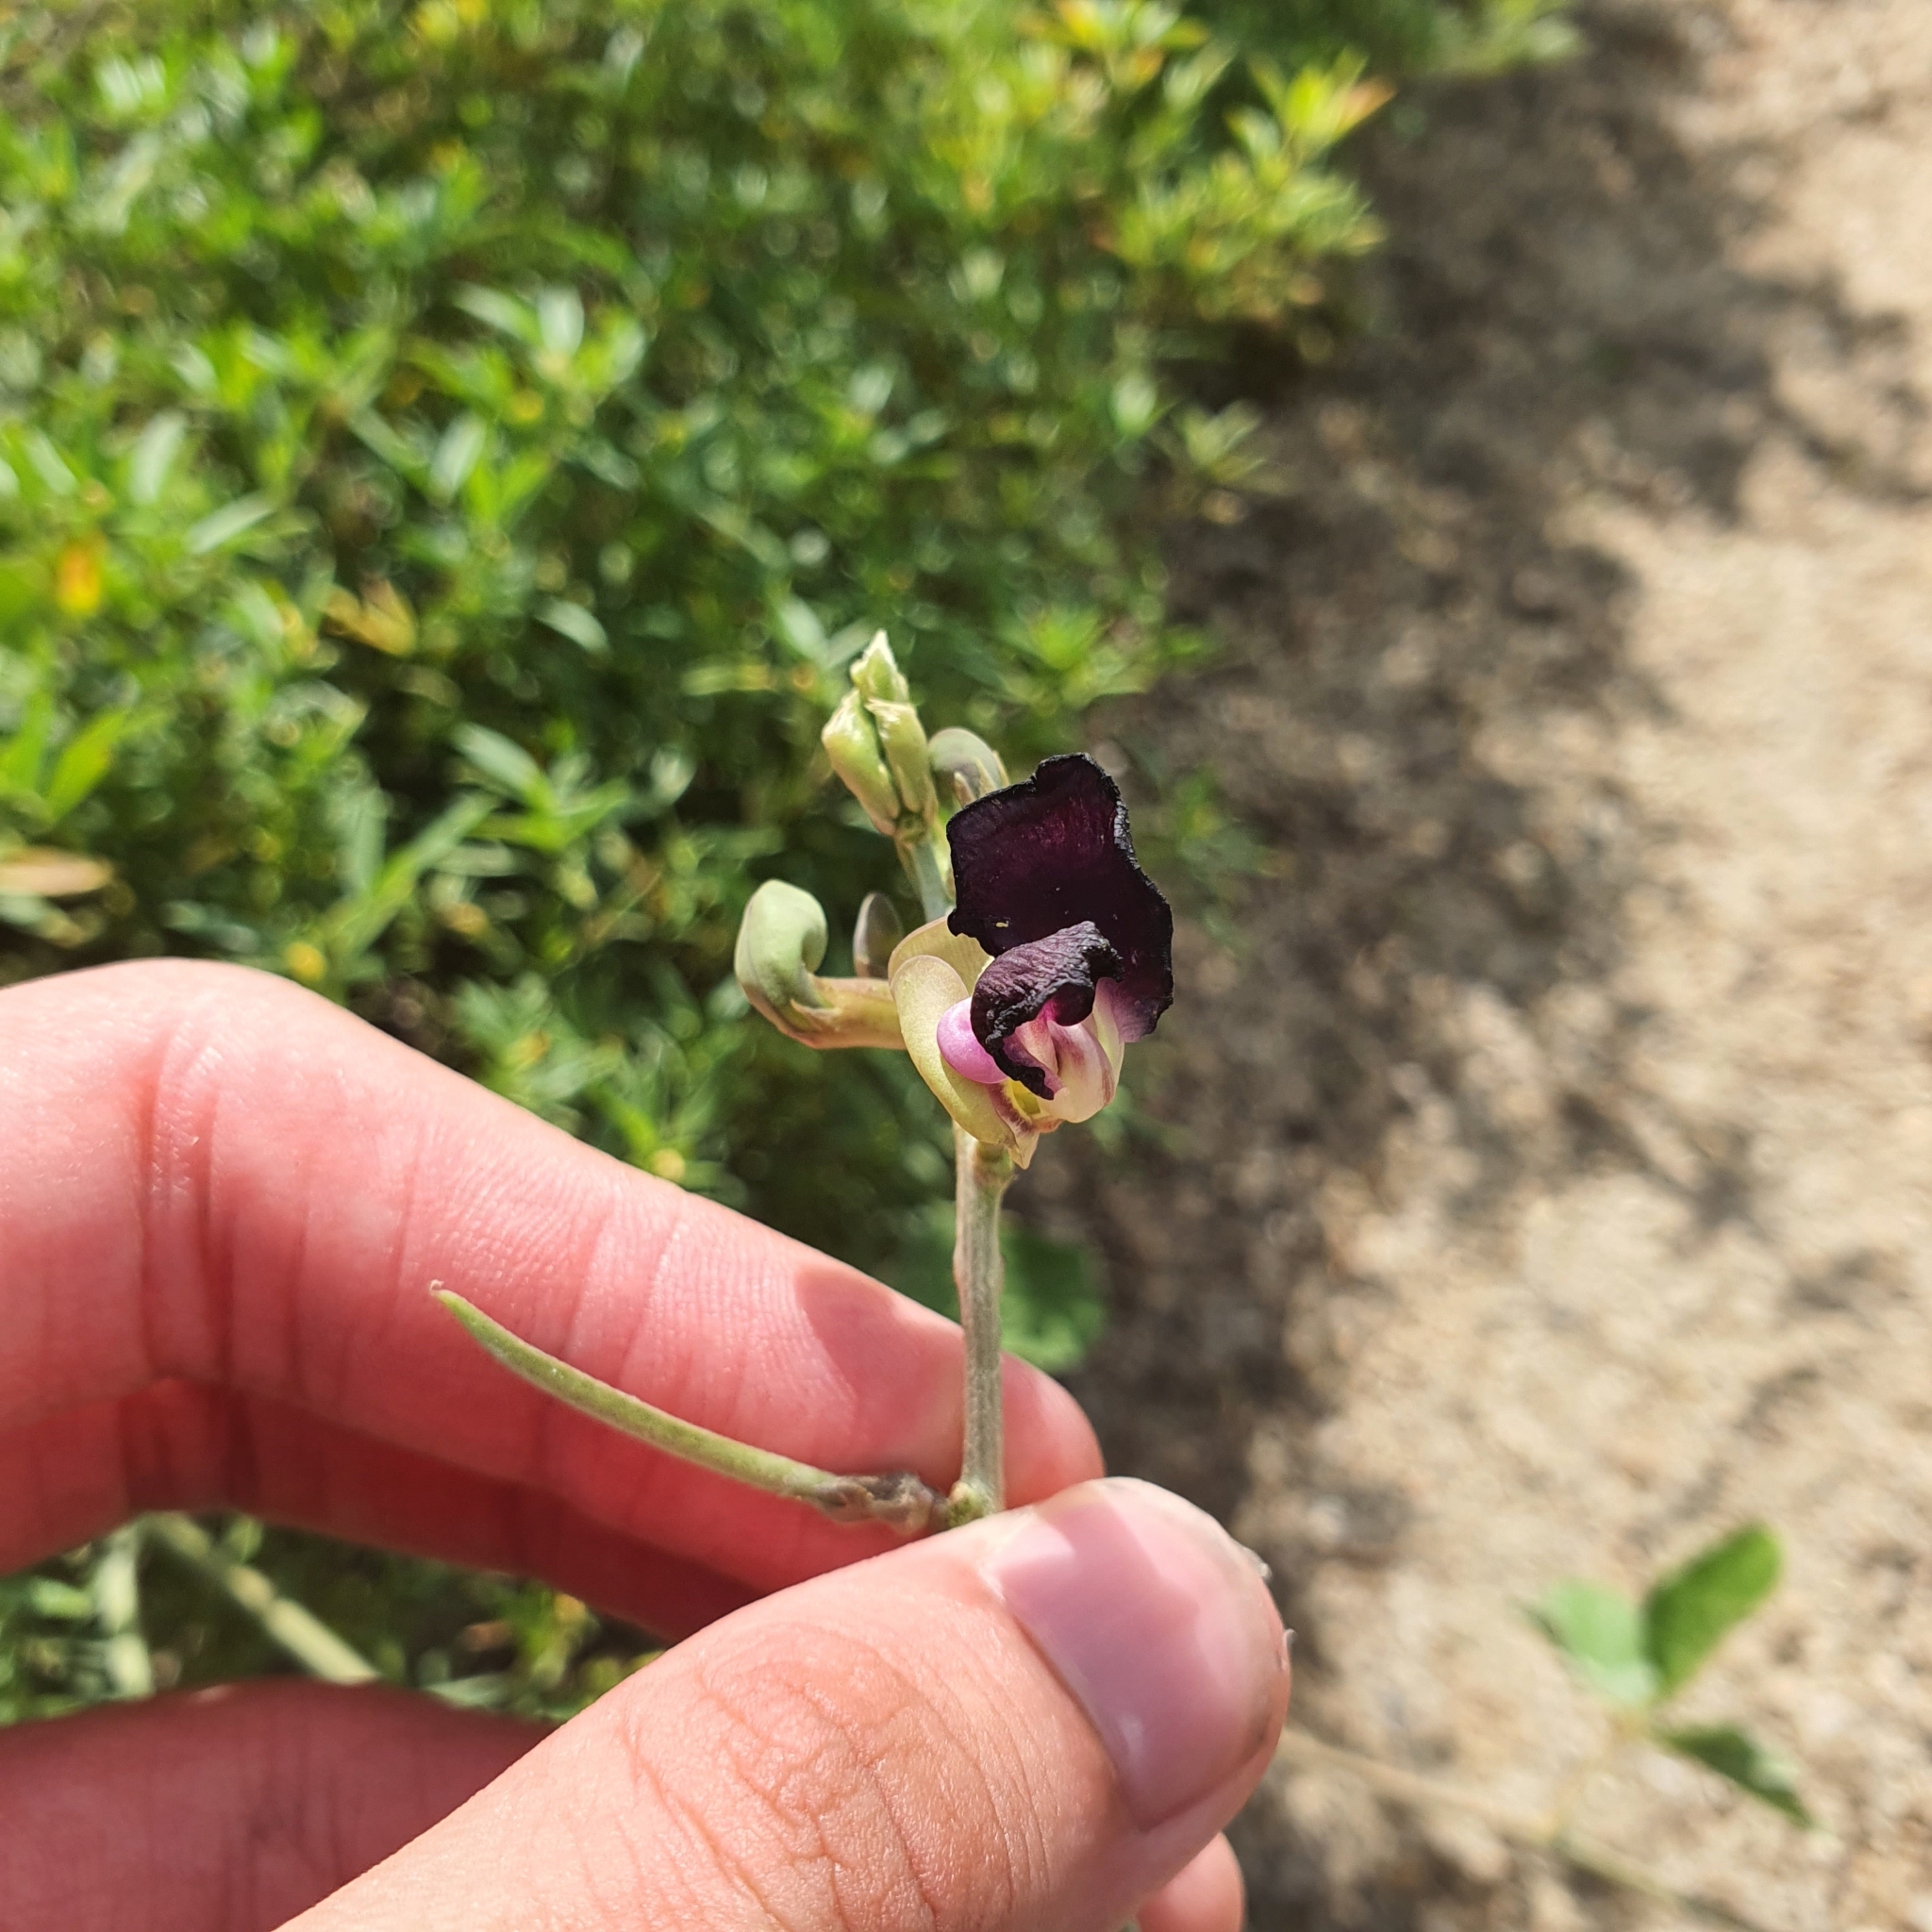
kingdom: Plantae
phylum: Tracheophyta
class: Magnoliopsida
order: Fabales
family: Fabaceae
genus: Macroptilium
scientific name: Macroptilium atropurpureum
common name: Purple bushbean
